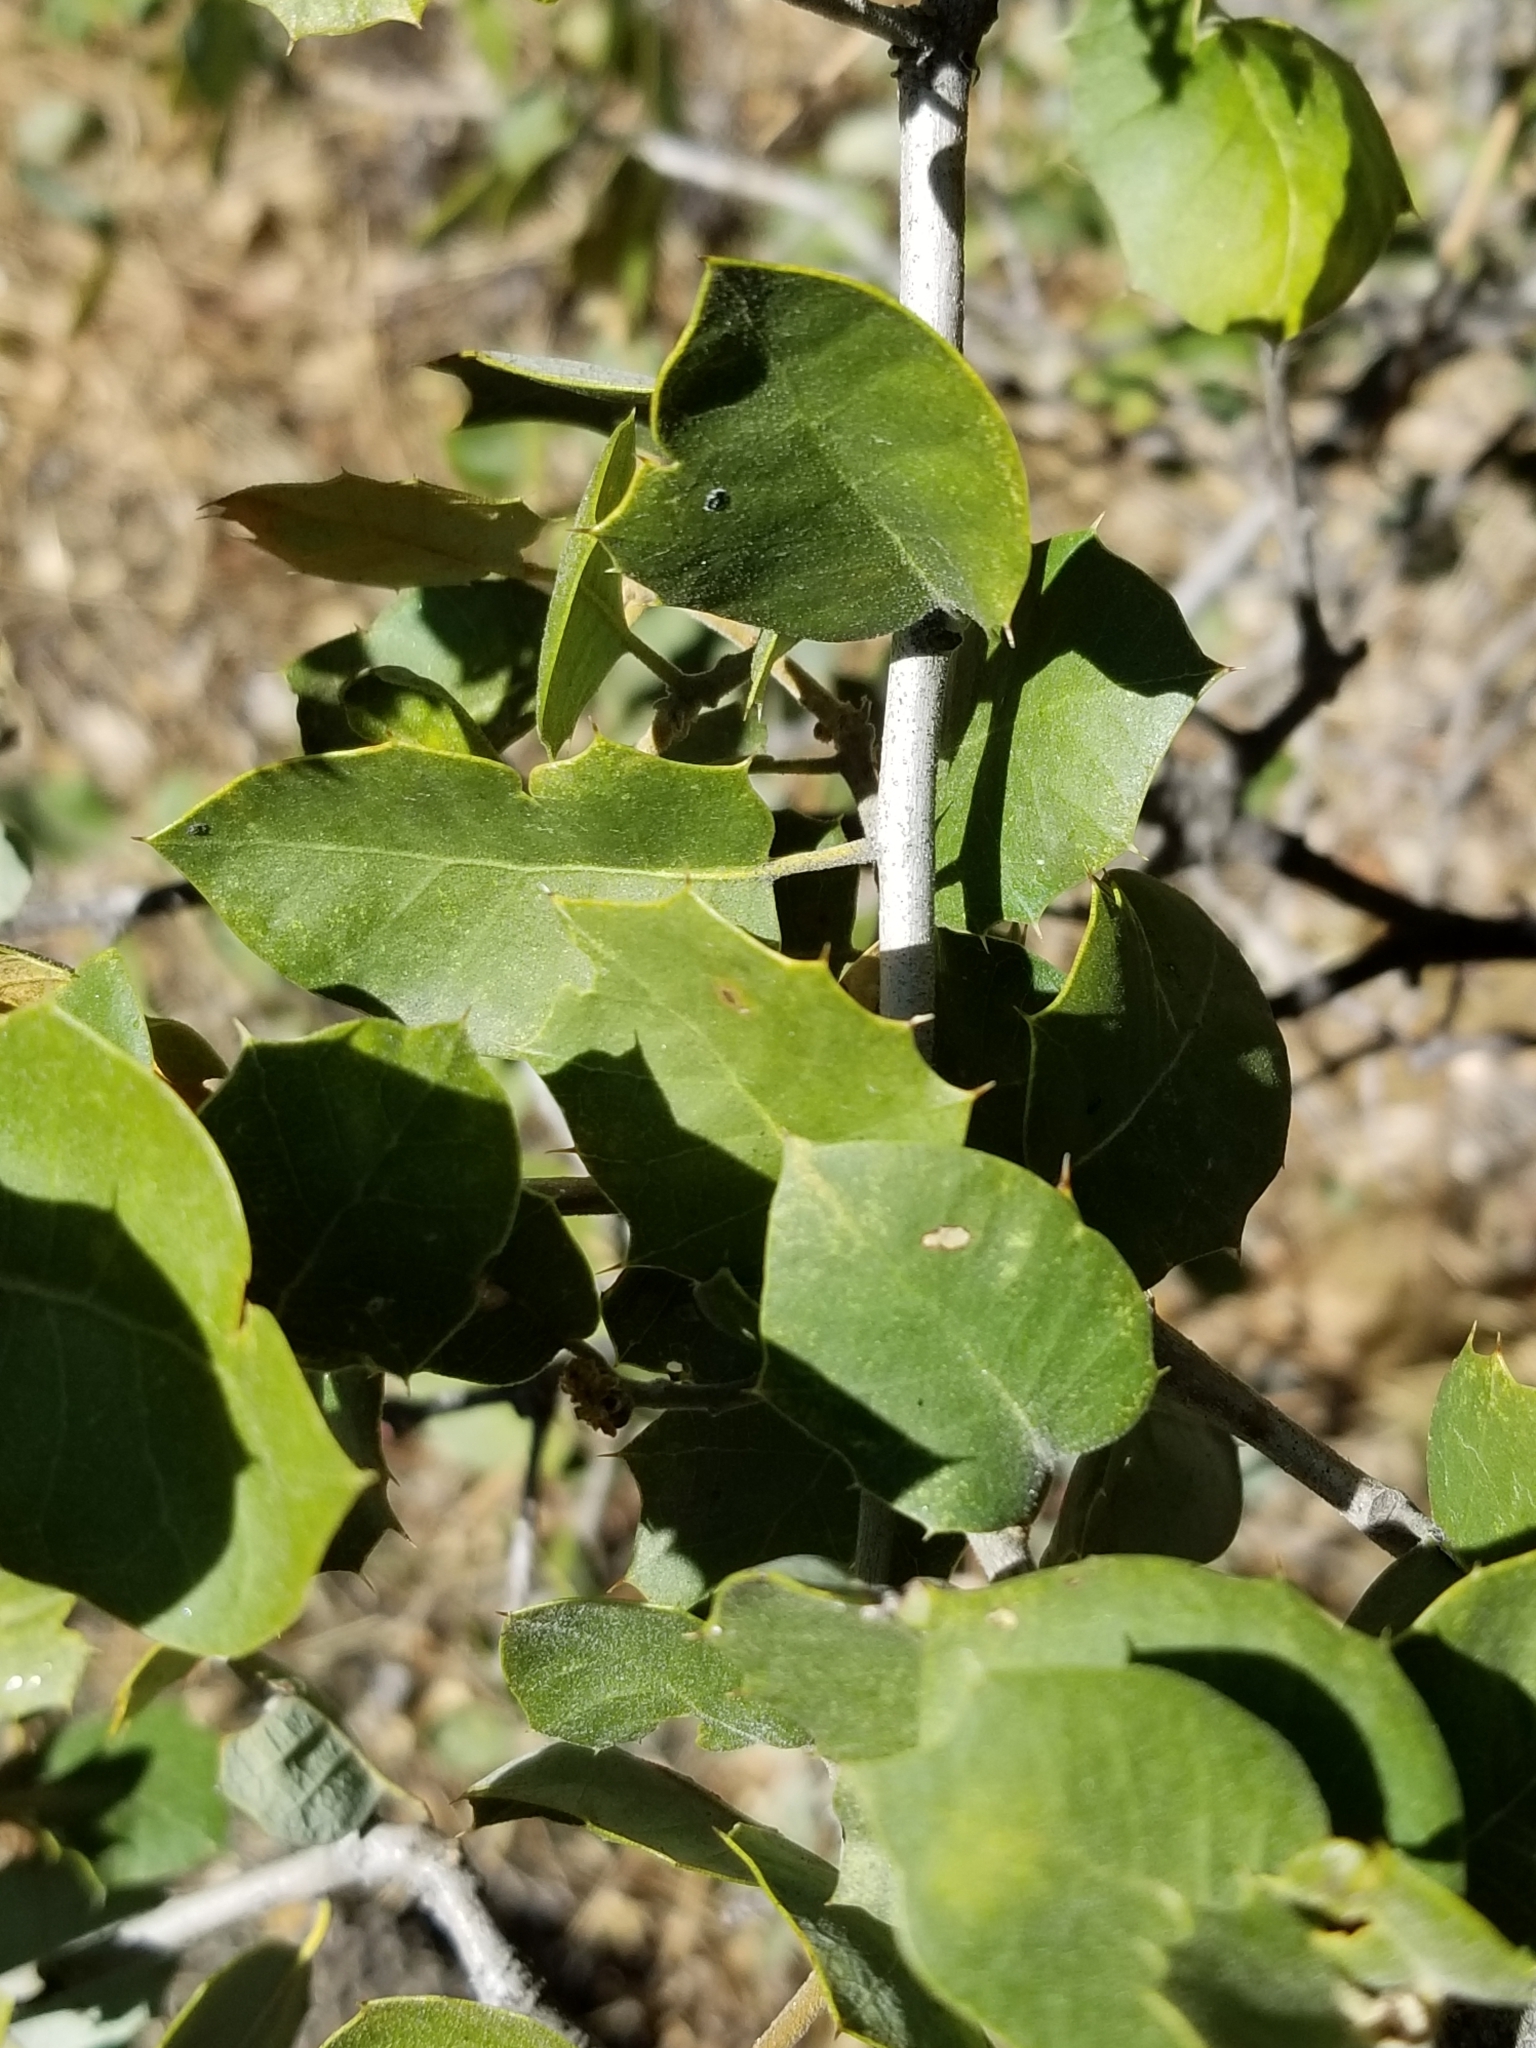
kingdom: Plantae
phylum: Tracheophyta
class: Magnoliopsida
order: Fagales
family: Fagaceae
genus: Quercus
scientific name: Quercus palmeri
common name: Dunn oak
